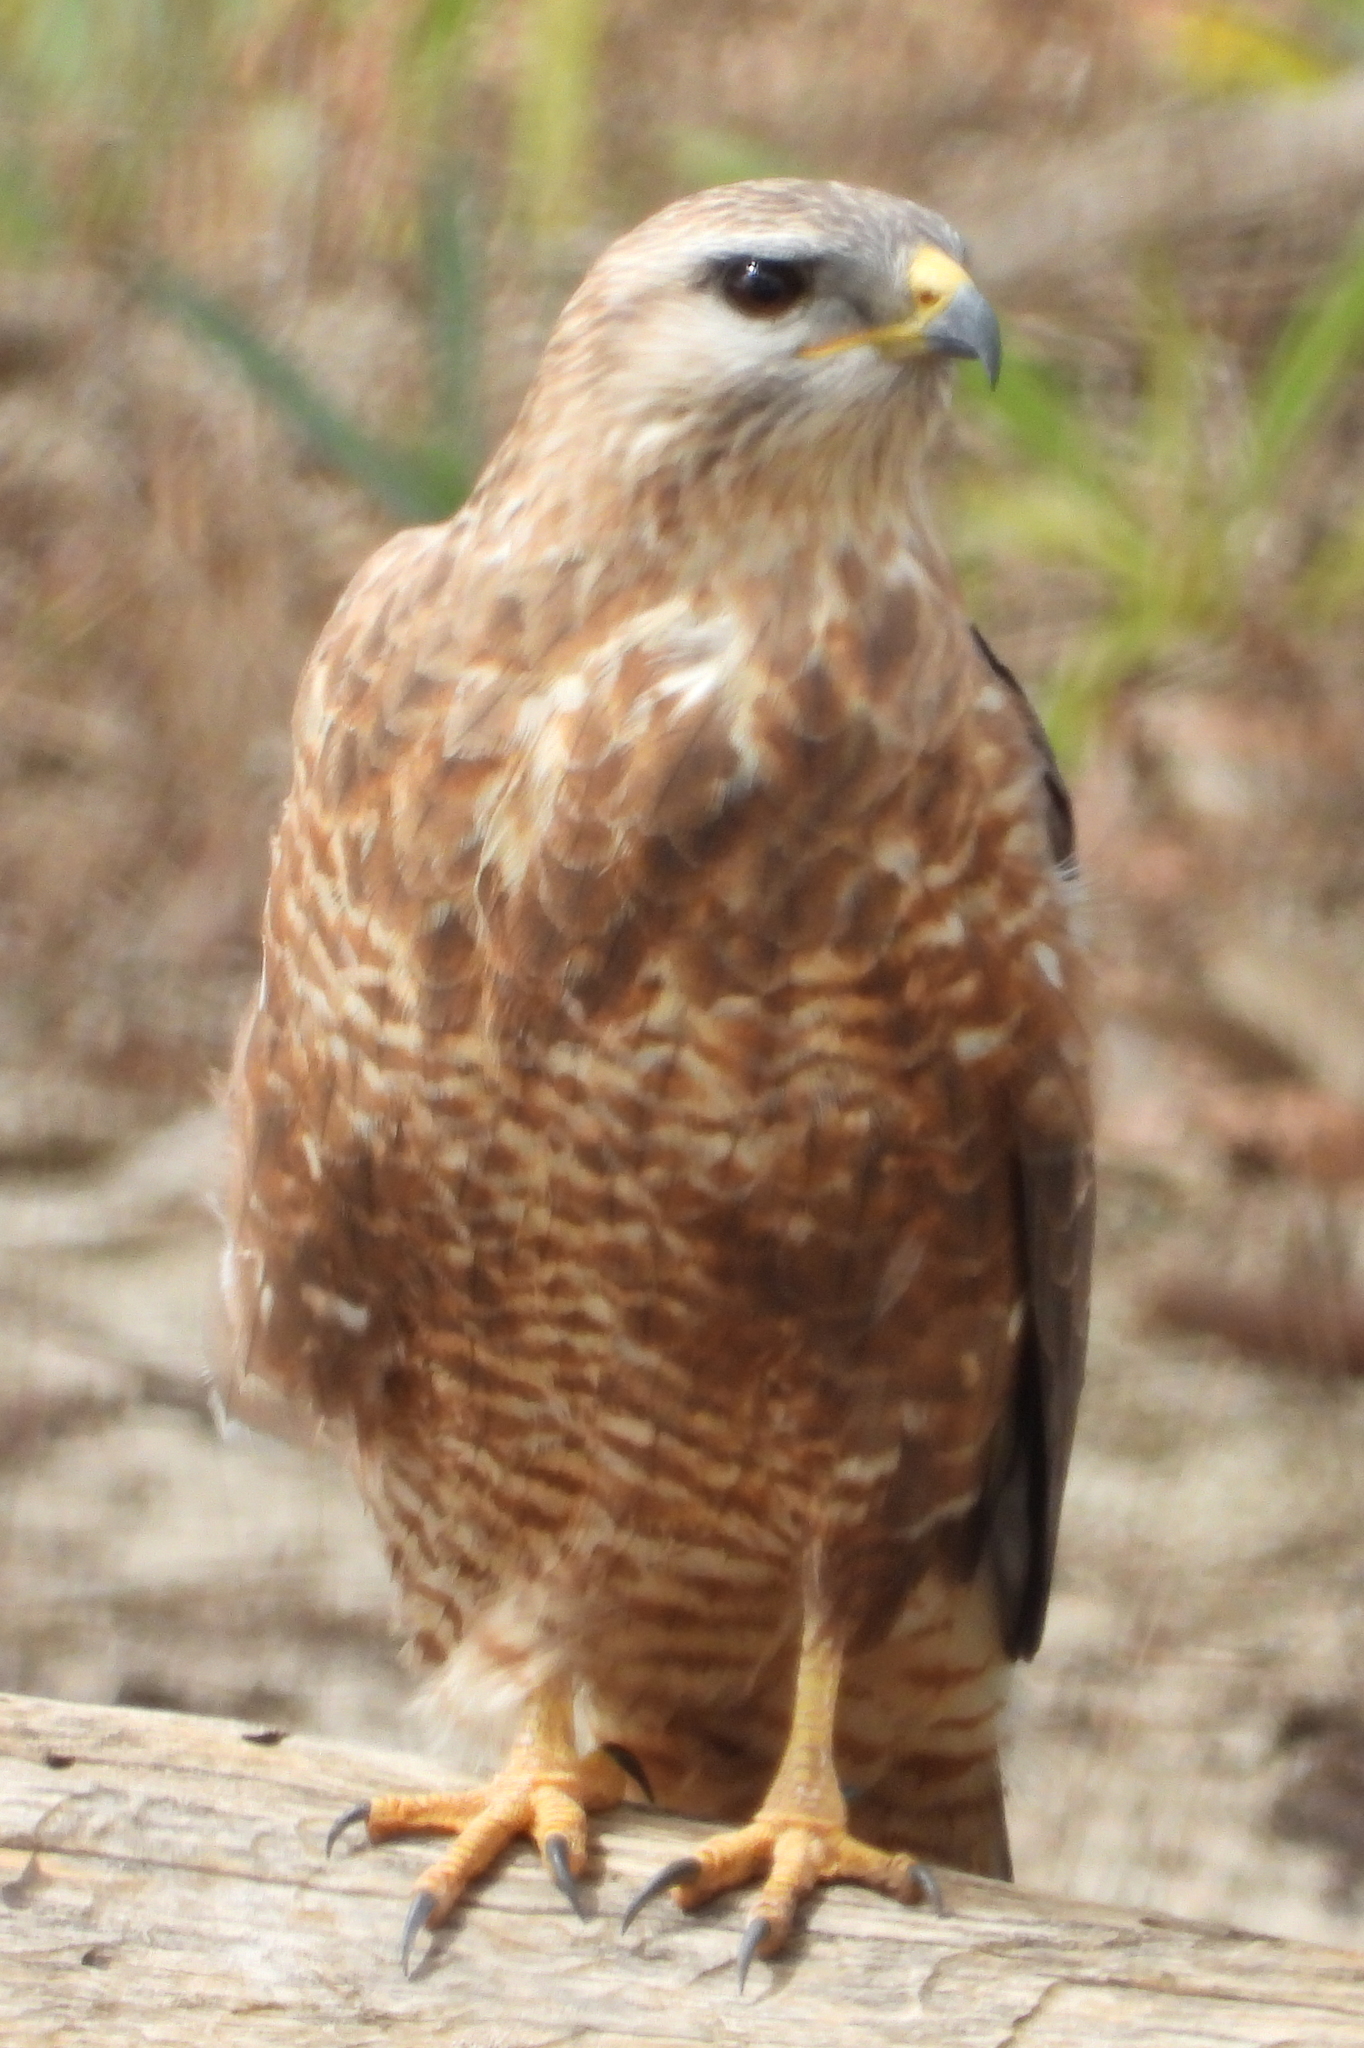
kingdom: Animalia
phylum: Chordata
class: Aves
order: Accipitriformes
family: Accipitridae
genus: Buteo
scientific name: Buteo buteo
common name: Common buzzard
